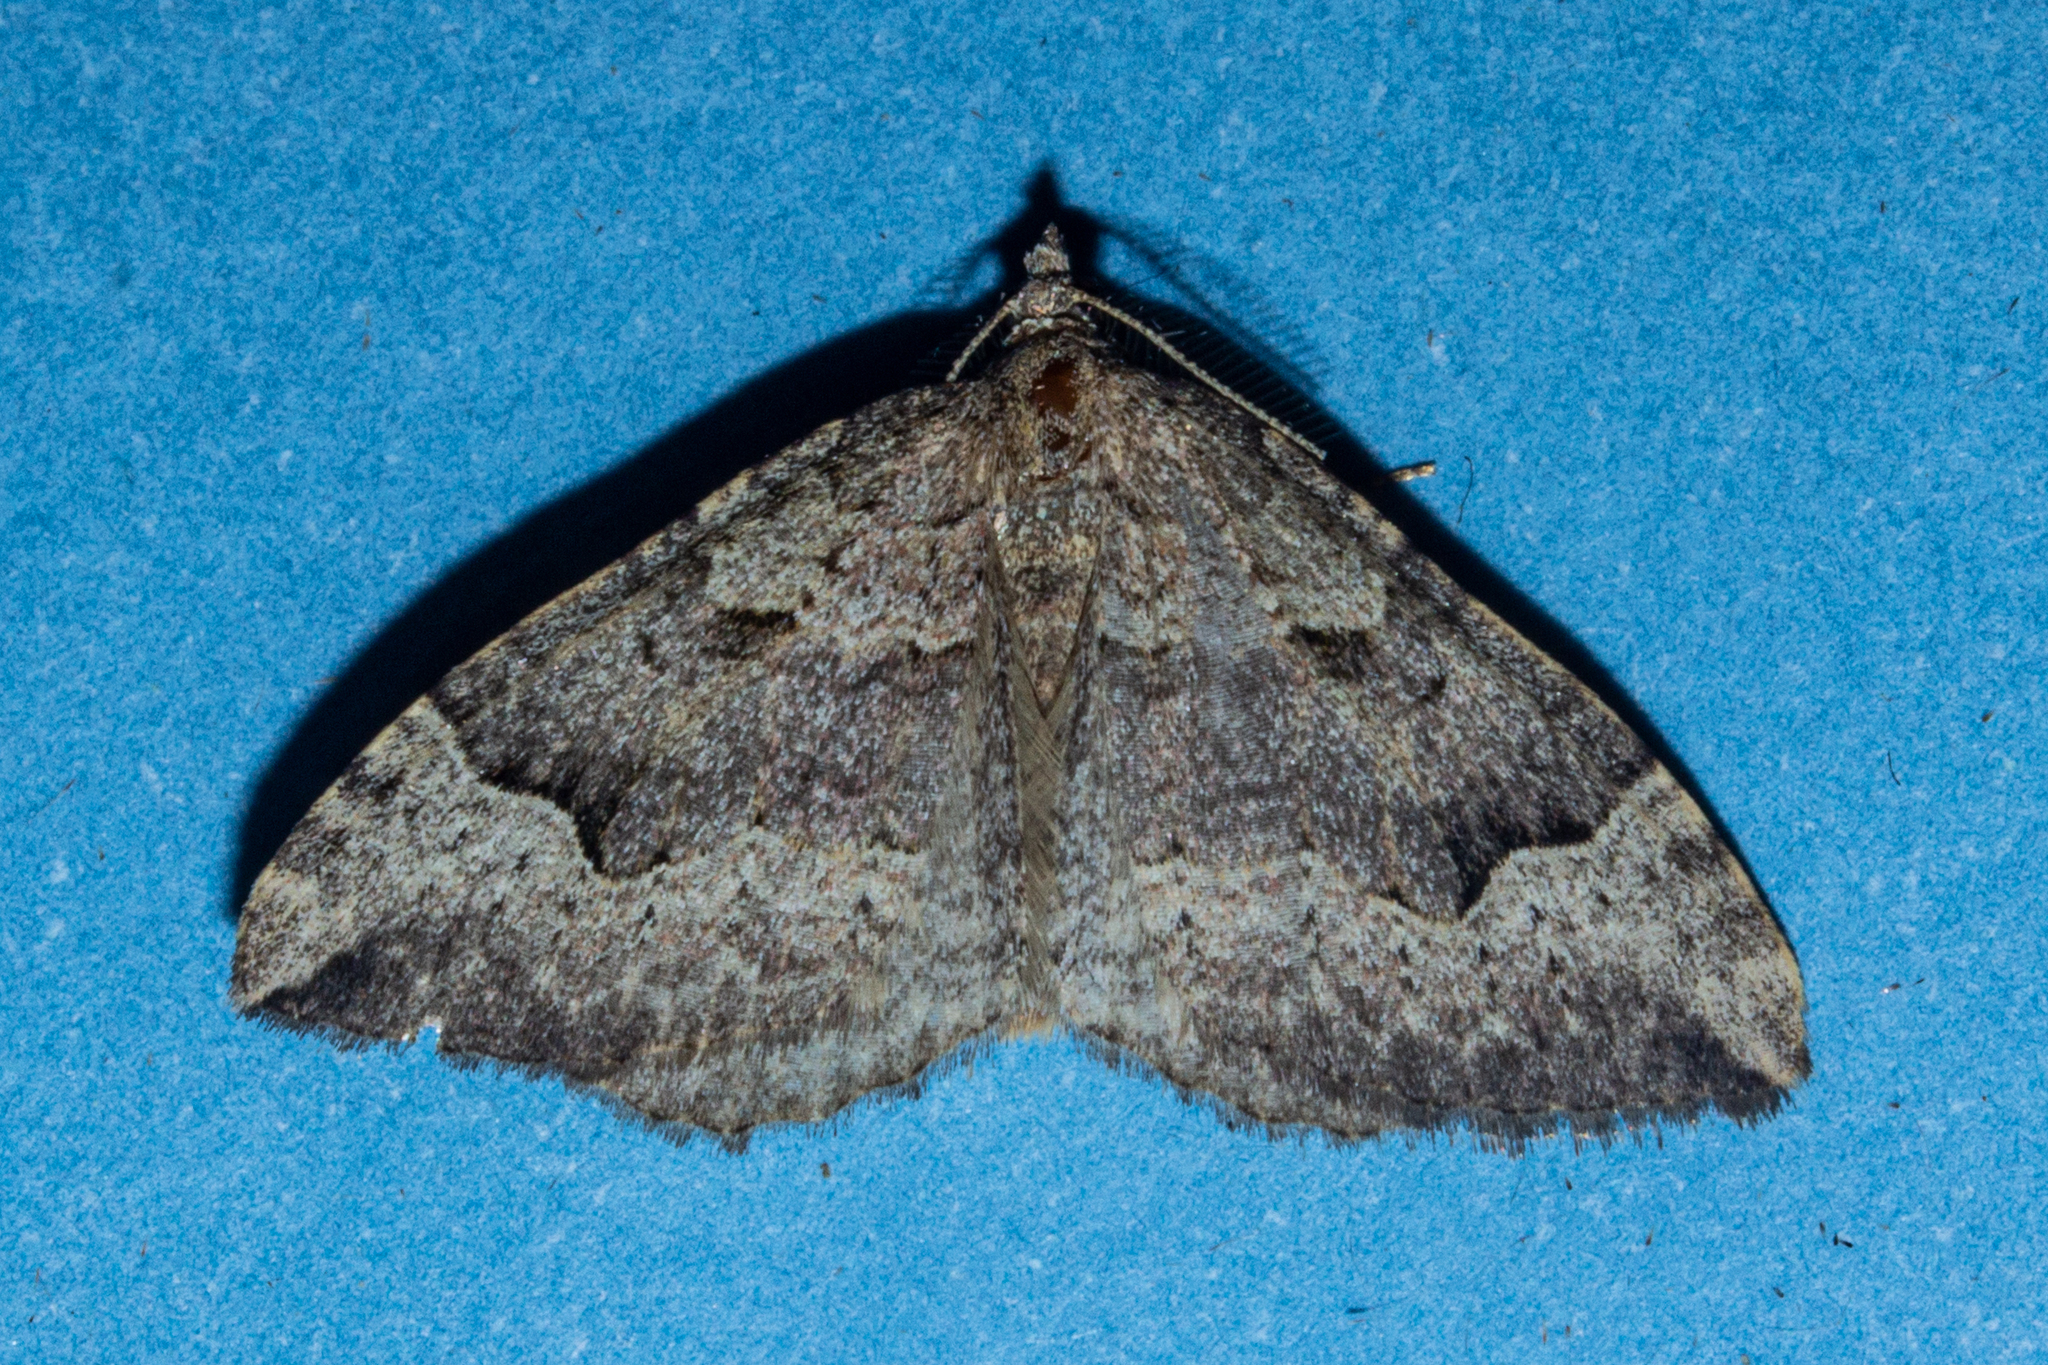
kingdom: Animalia
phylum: Arthropoda
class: Insecta
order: Lepidoptera
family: Geometridae
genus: Epyaxa
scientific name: Epyaxa rosearia
